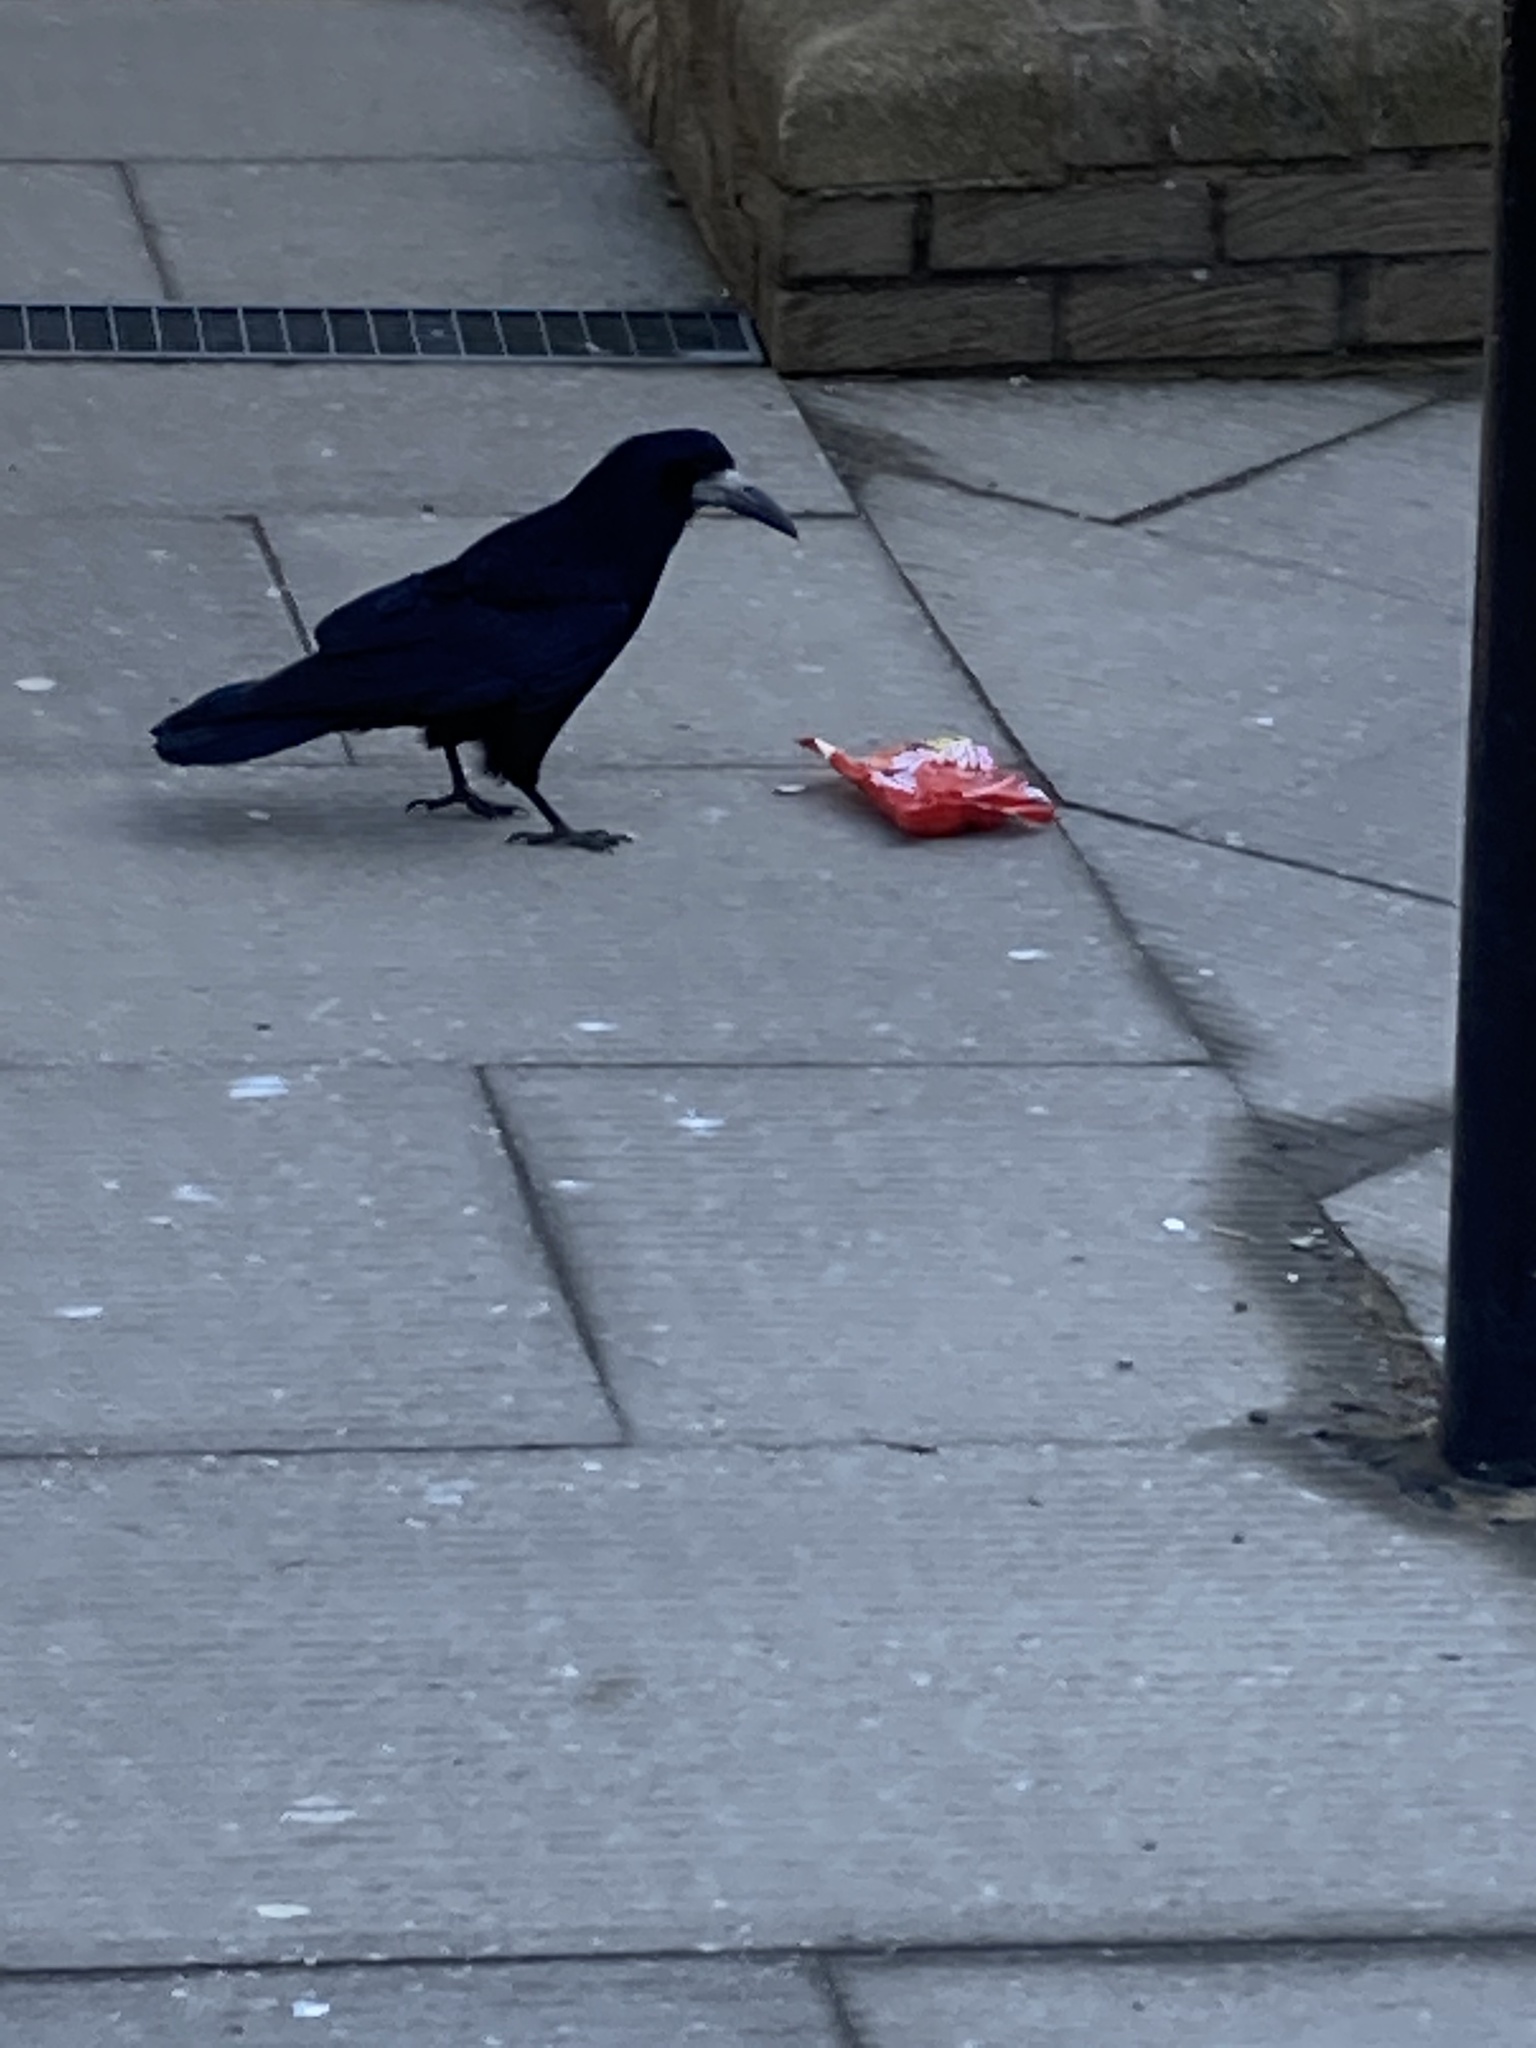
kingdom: Animalia
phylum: Chordata
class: Aves
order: Passeriformes
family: Corvidae
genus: Corvus
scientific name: Corvus frugilegus
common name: Rook
